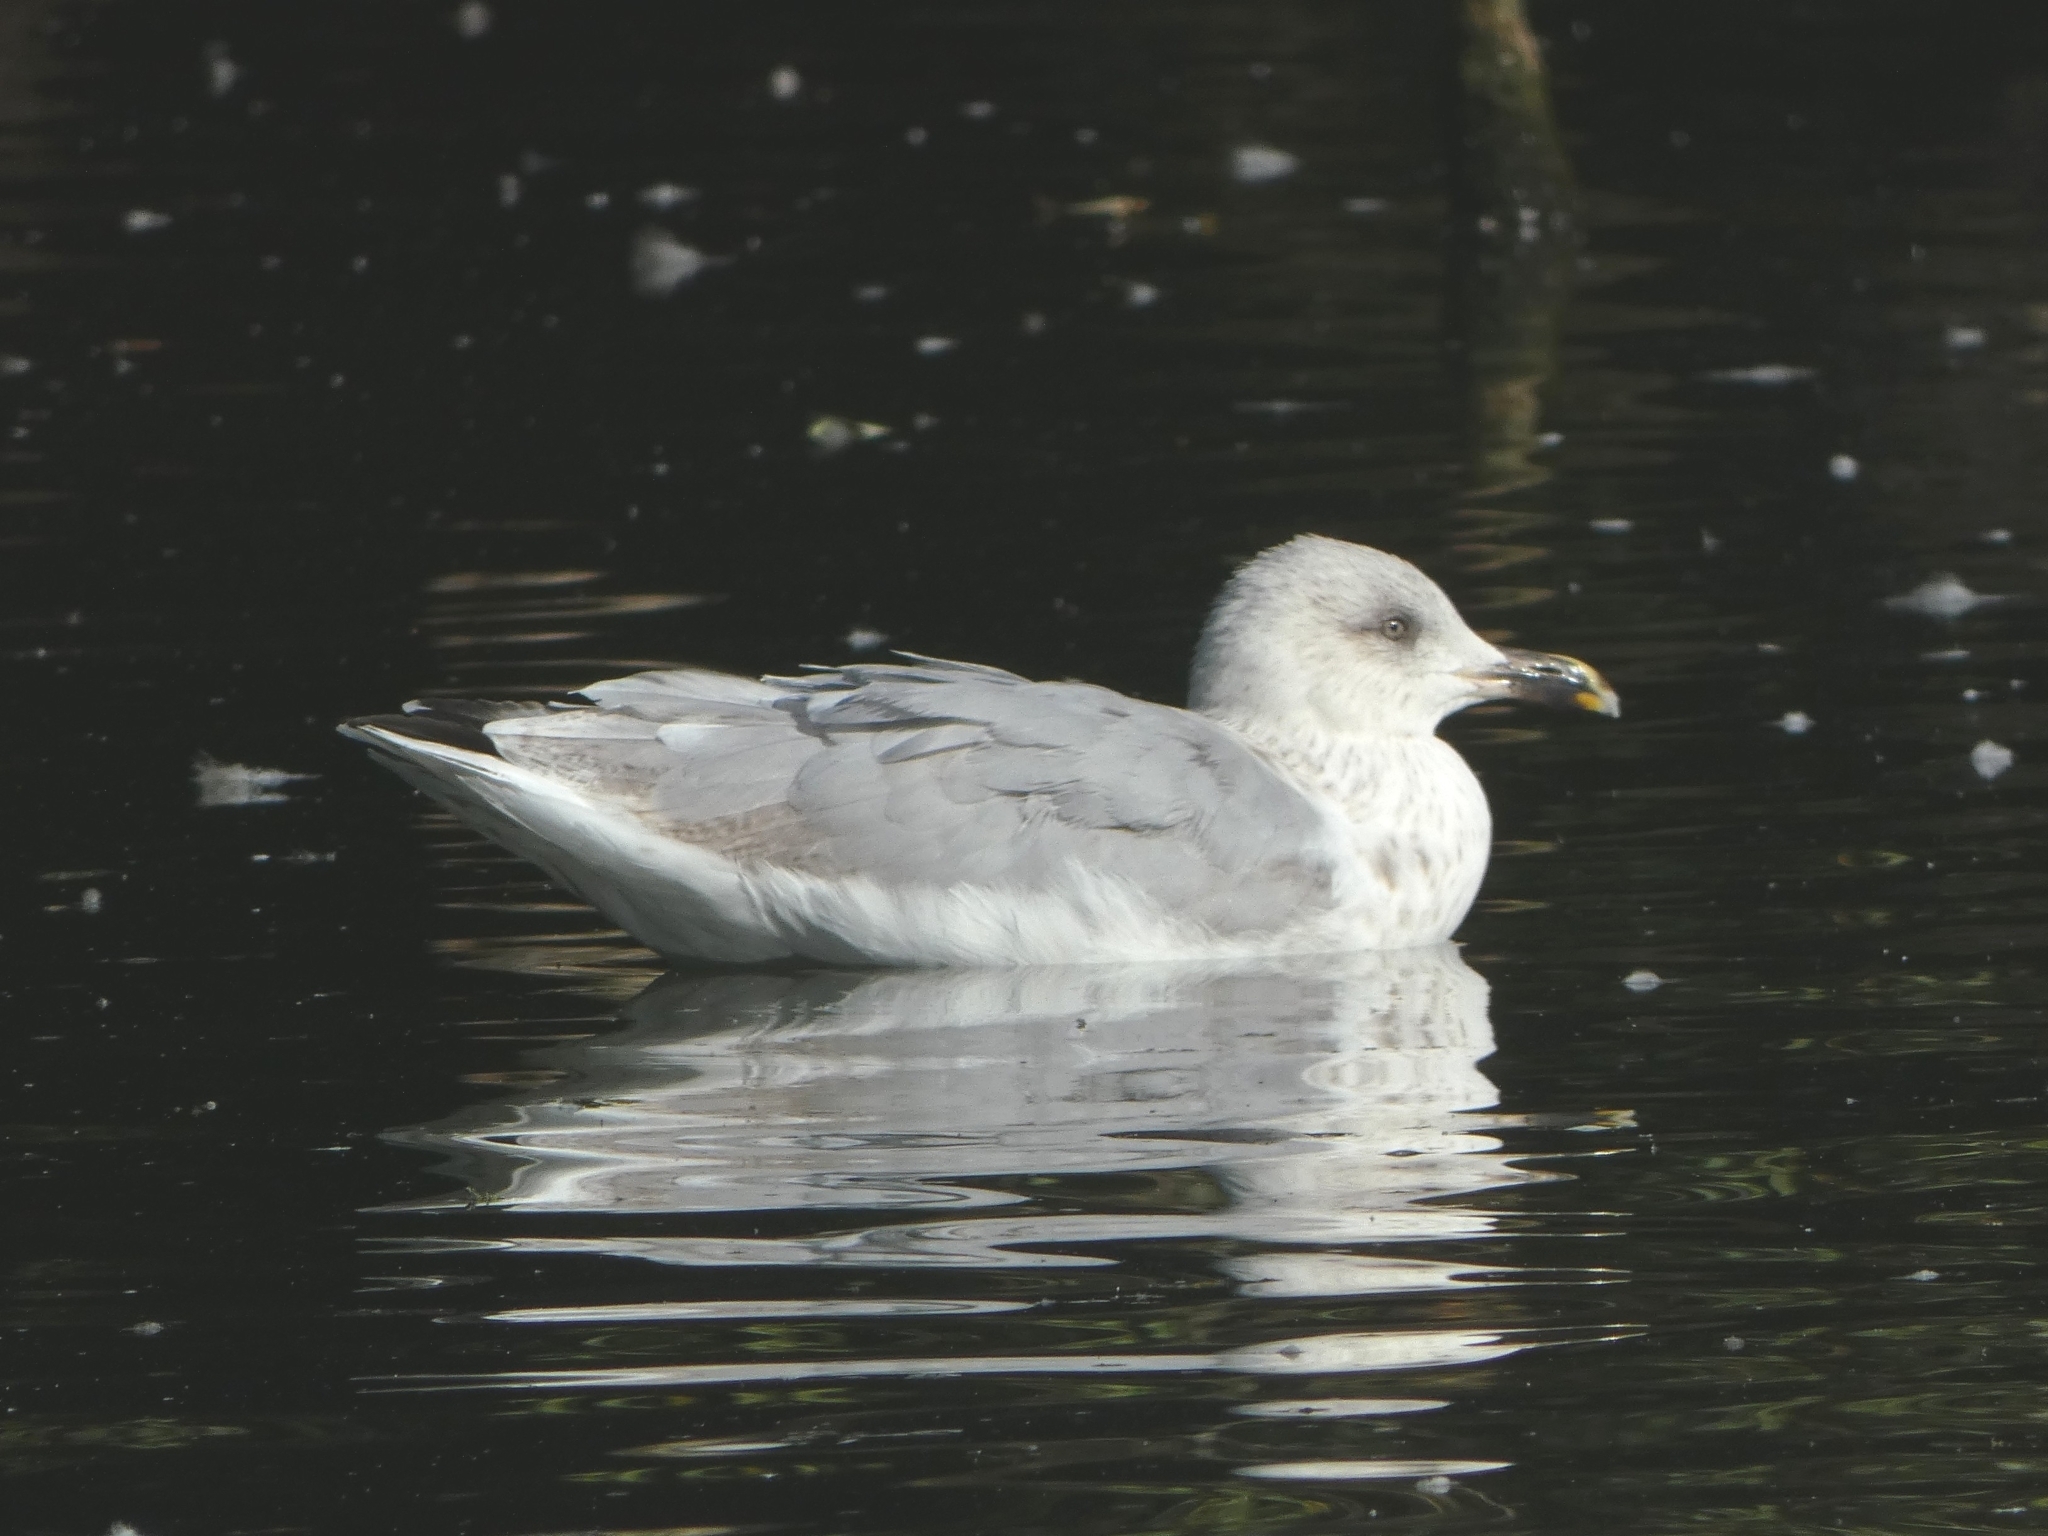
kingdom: Animalia
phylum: Chordata
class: Aves
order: Charadriiformes
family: Laridae
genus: Larus
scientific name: Larus argentatus
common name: Herring gull
